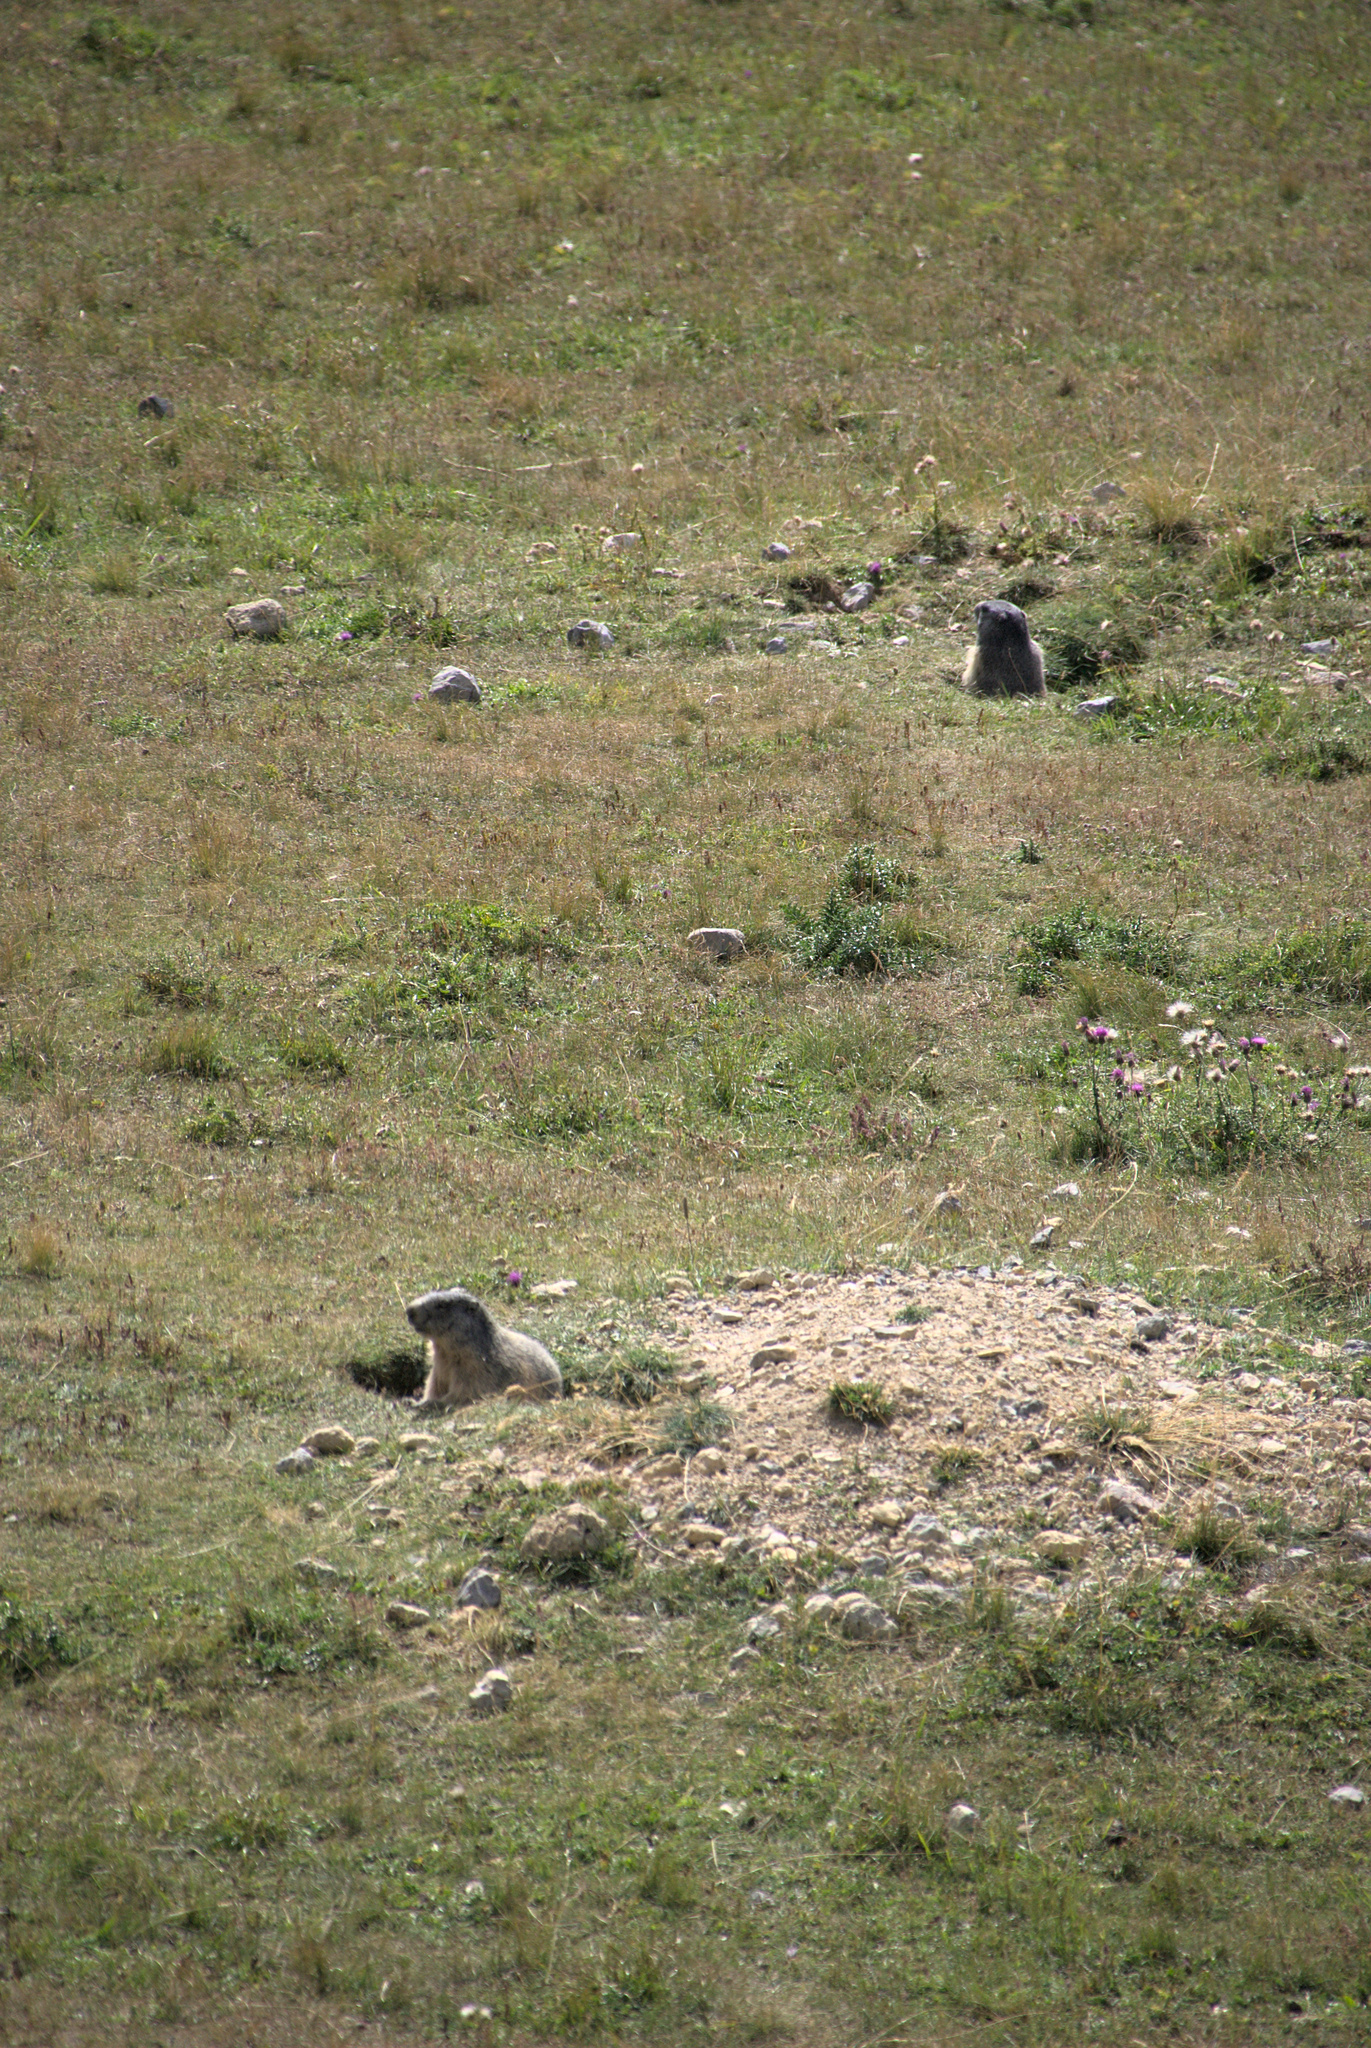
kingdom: Animalia
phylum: Chordata
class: Mammalia
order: Rodentia
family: Sciuridae
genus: Marmota
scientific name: Marmota marmota
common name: Alpine marmot
